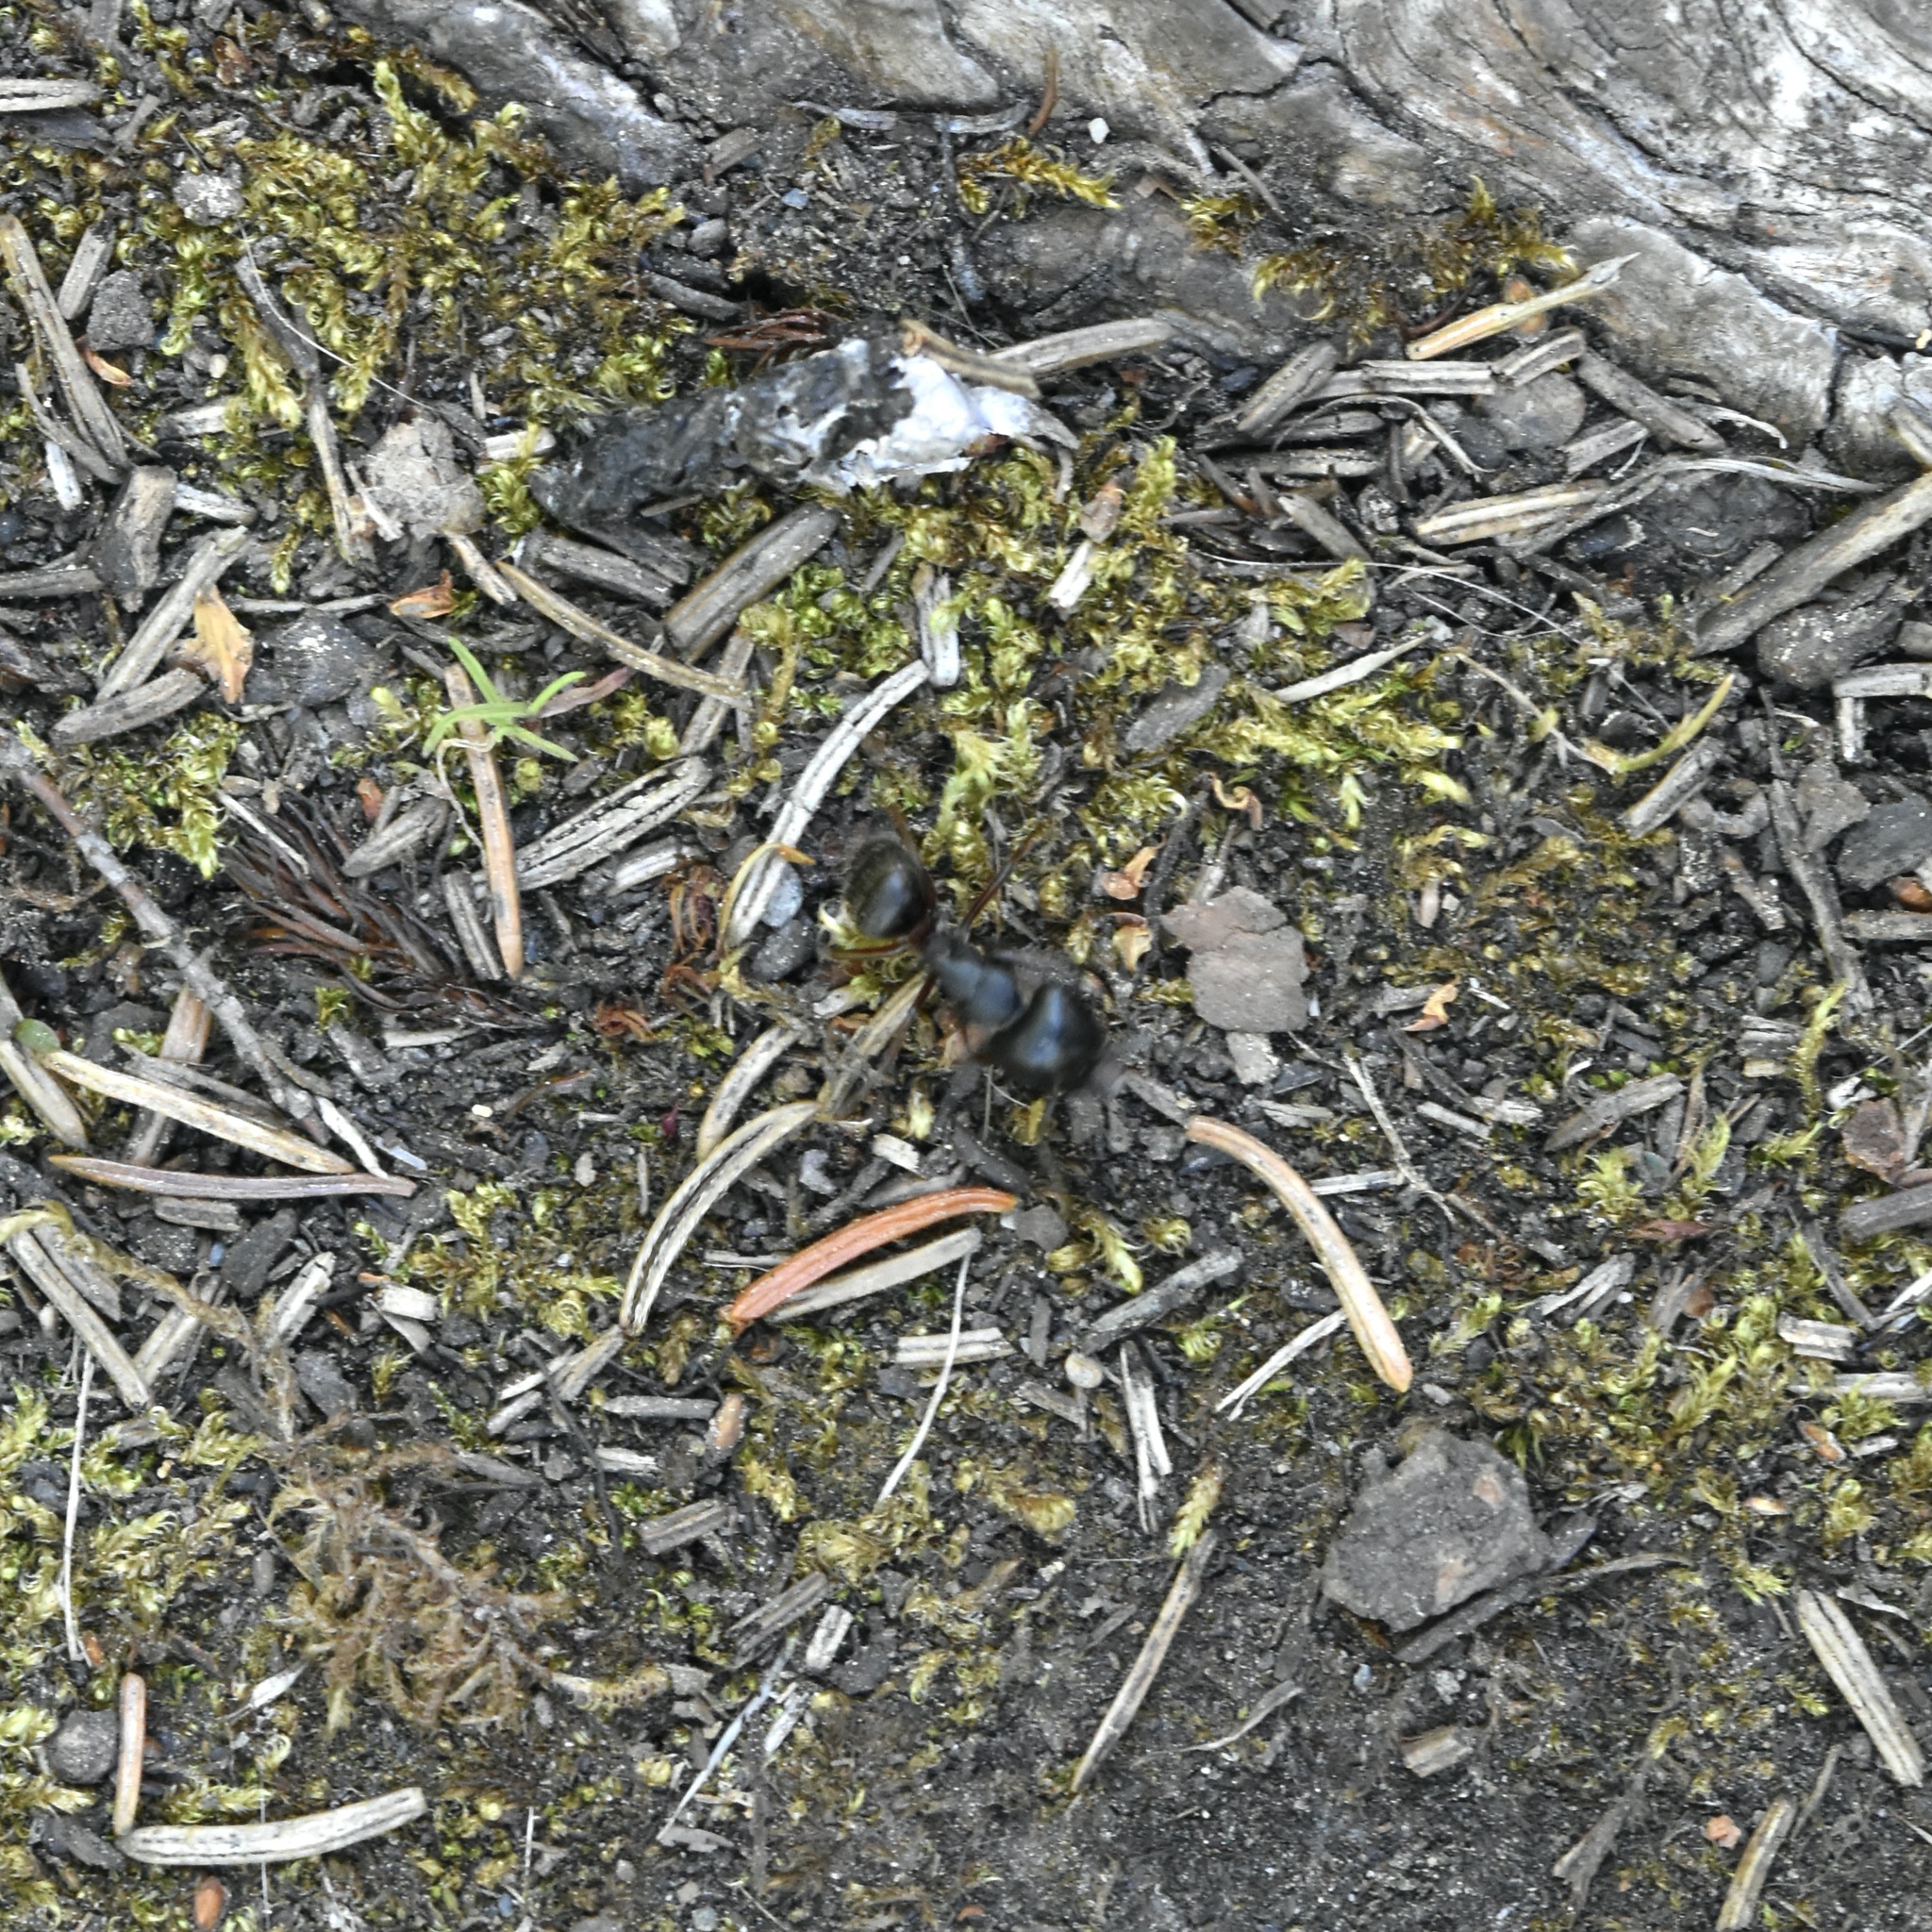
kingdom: Animalia
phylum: Arthropoda
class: Insecta
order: Hymenoptera
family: Formicidae
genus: Camponotus
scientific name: Camponotus herculeanus
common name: Hercules ant
